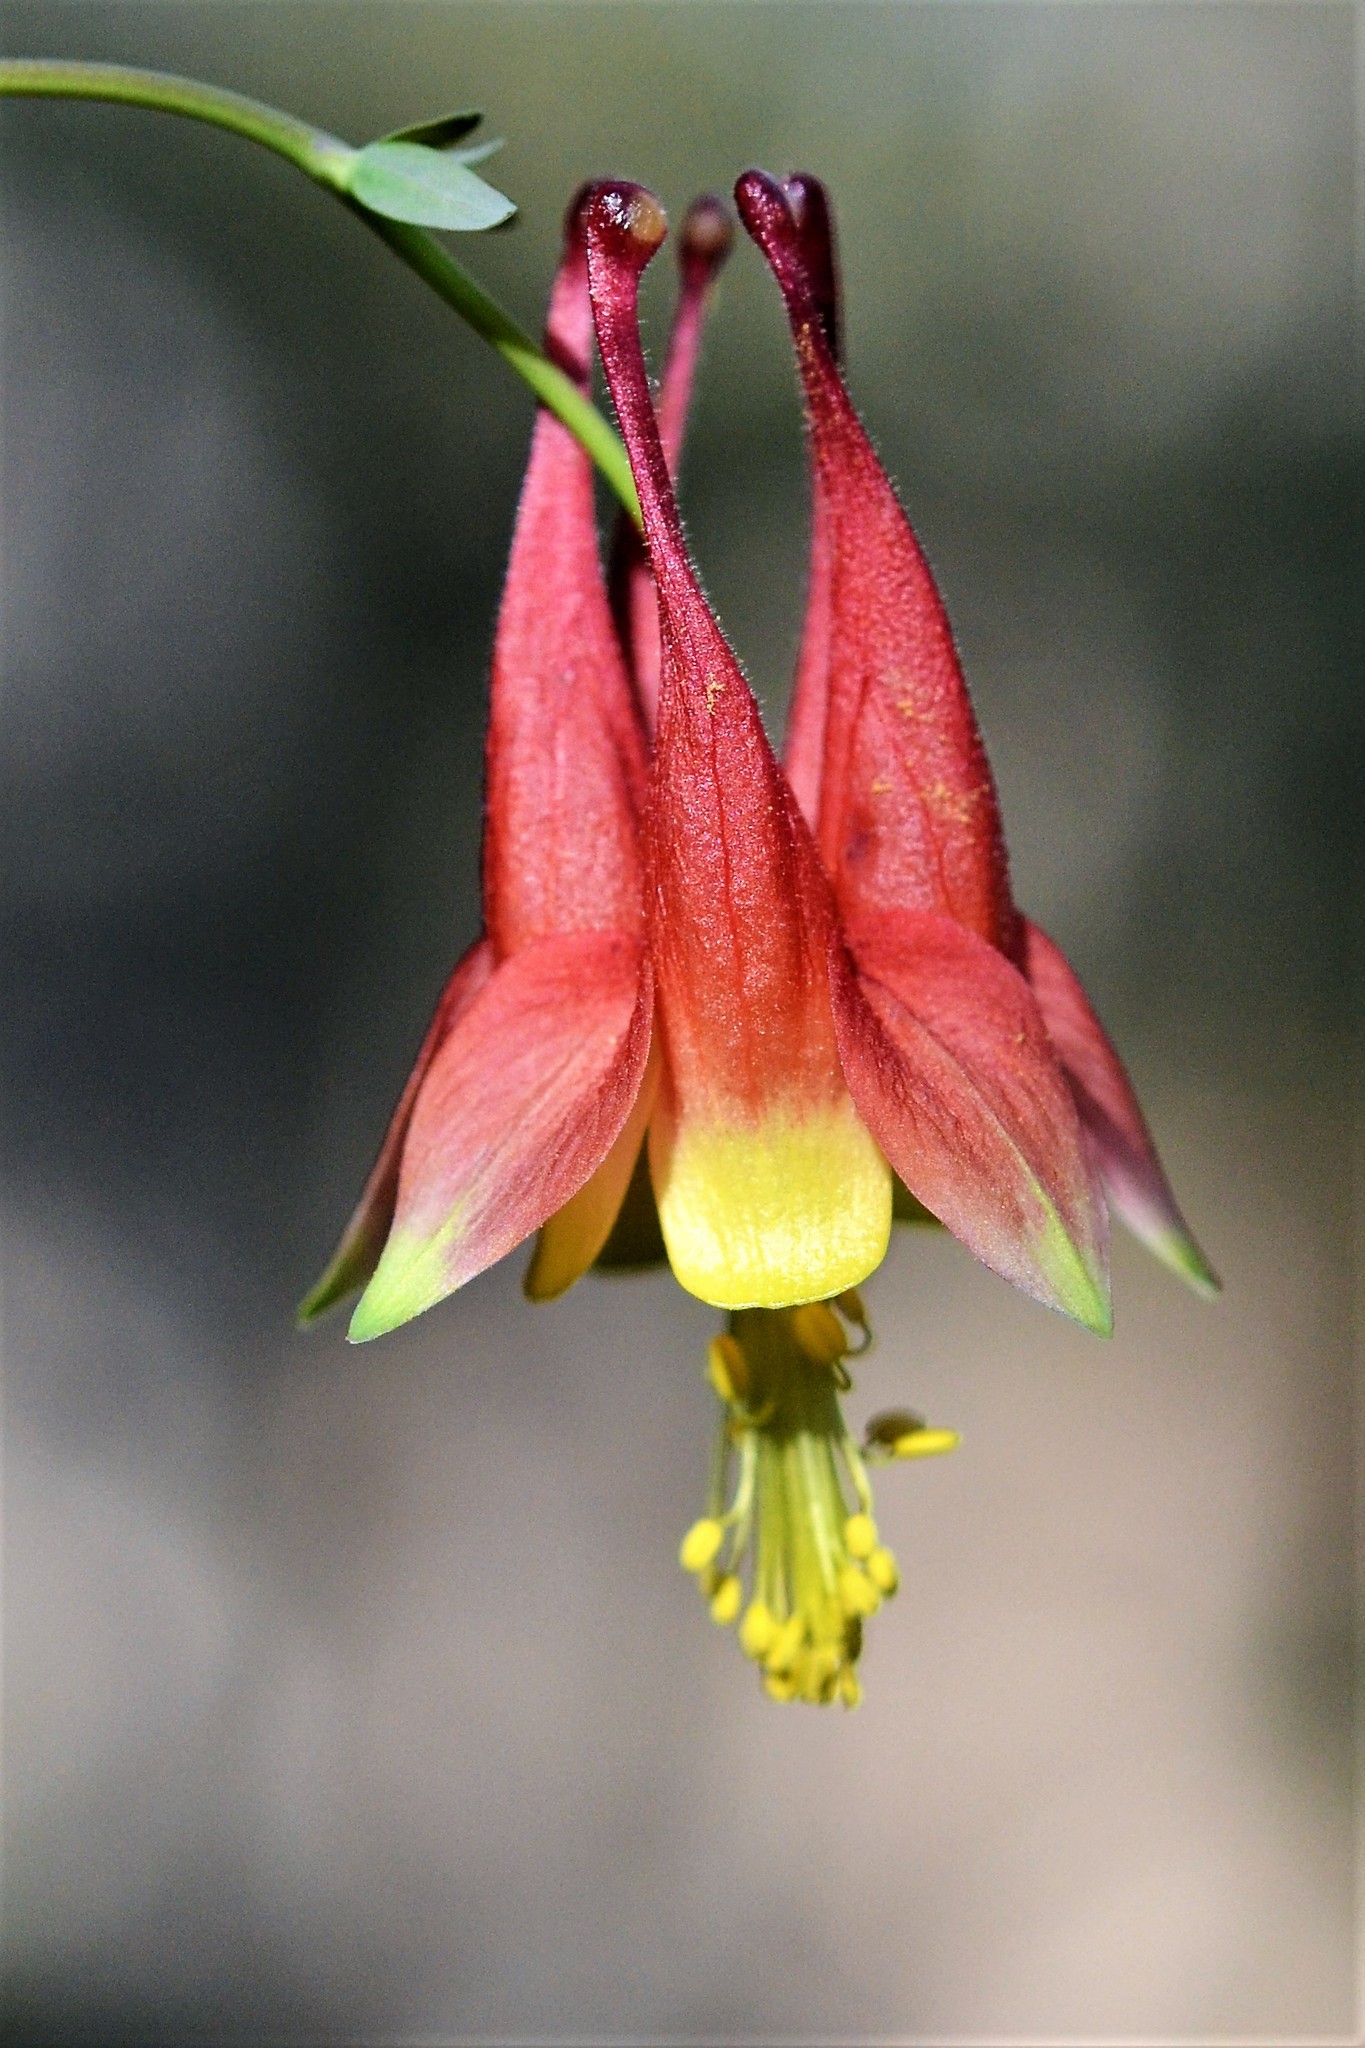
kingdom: Plantae
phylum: Tracheophyta
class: Magnoliopsida
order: Ranunculales
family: Ranunculaceae
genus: Aquilegia
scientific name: Aquilegia canadensis
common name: American columbine
